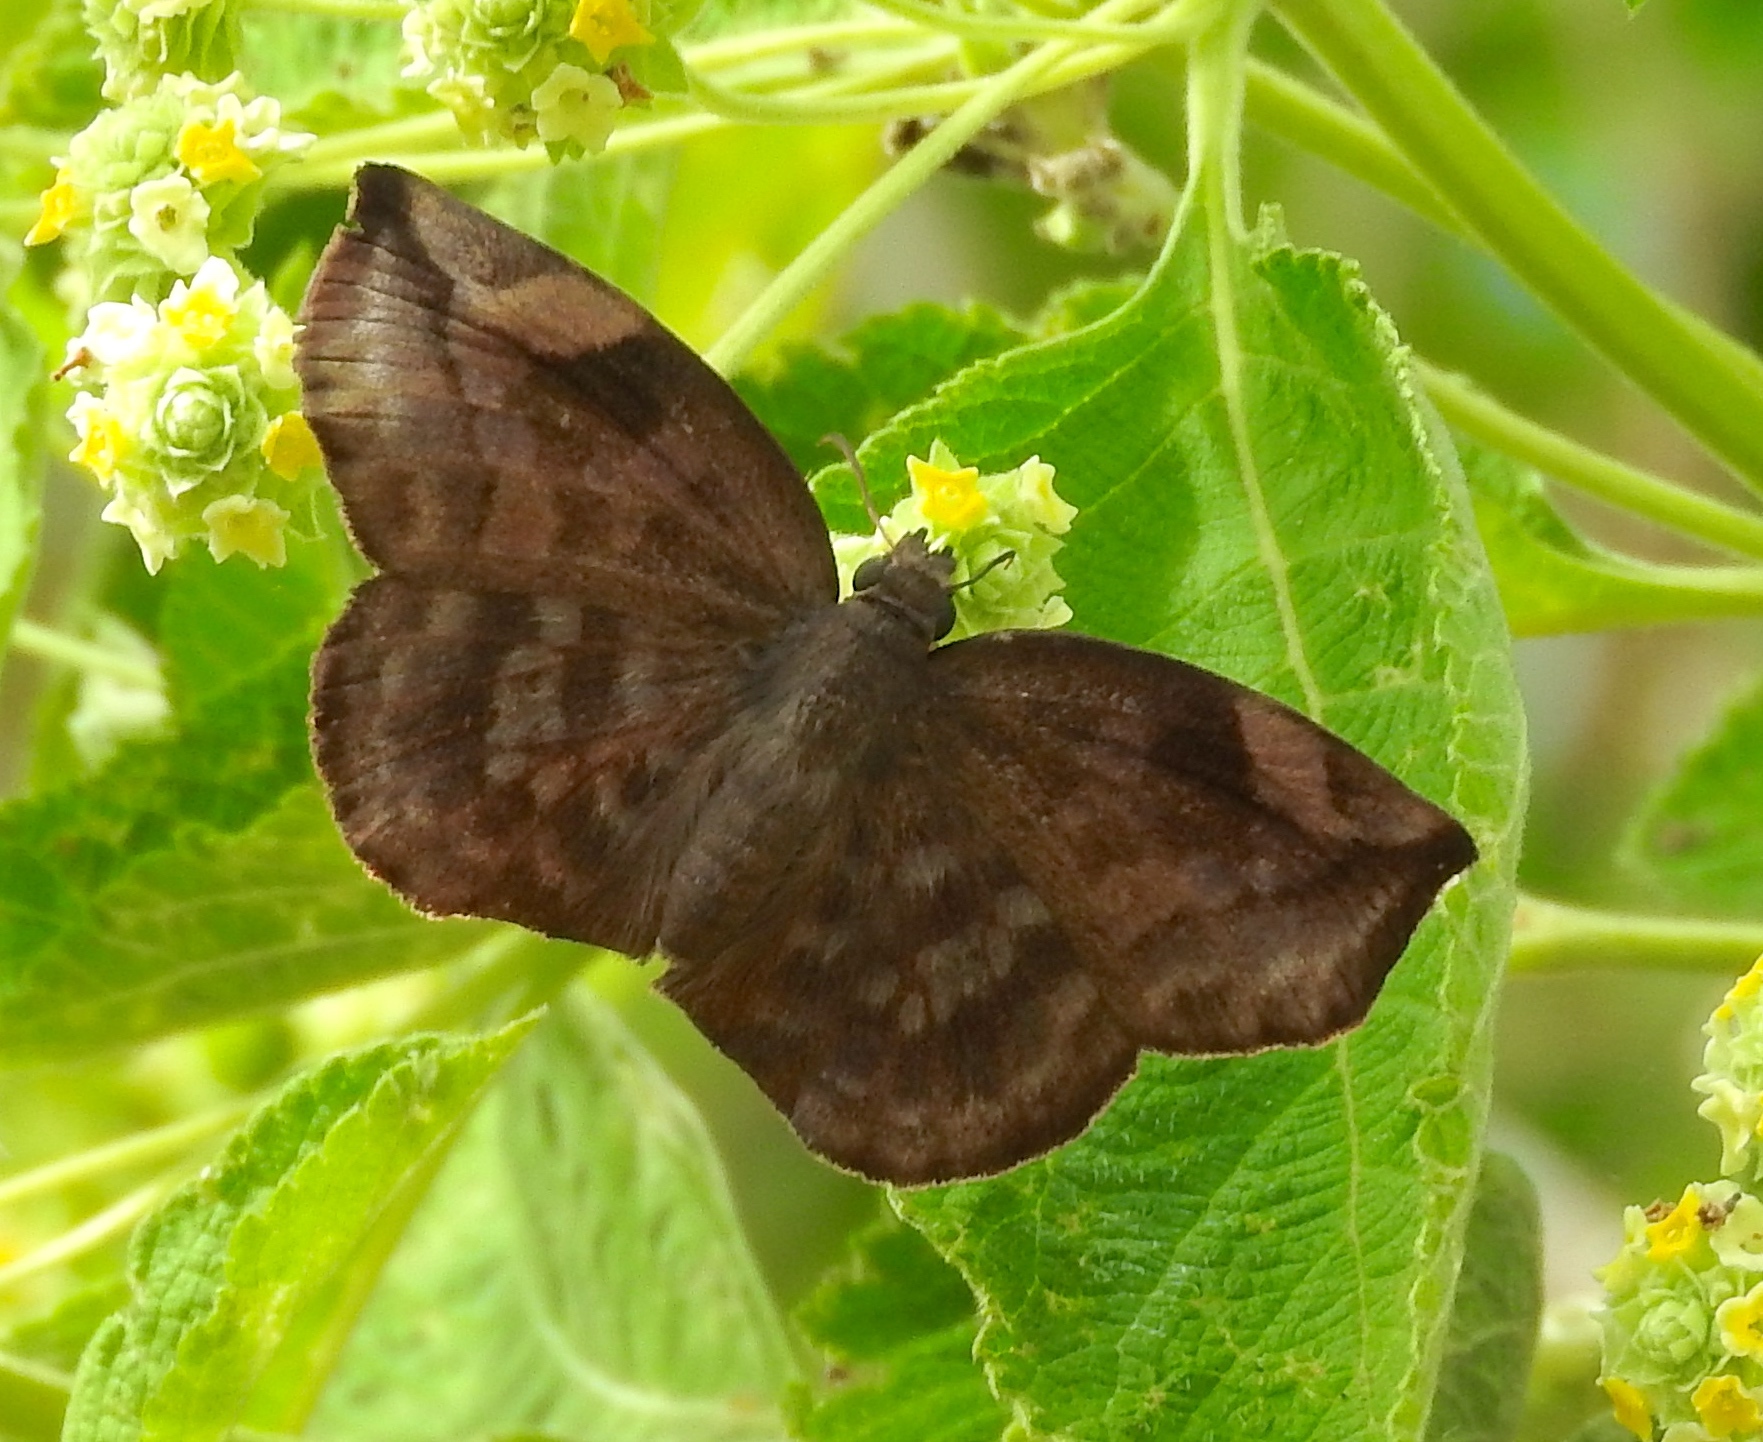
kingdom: Animalia
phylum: Arthropoda
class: Insecta
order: Lepidoptera
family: Hesperiidae
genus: Achlyodes
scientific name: Achlyodes thraso
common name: Sickle-winged skipper
